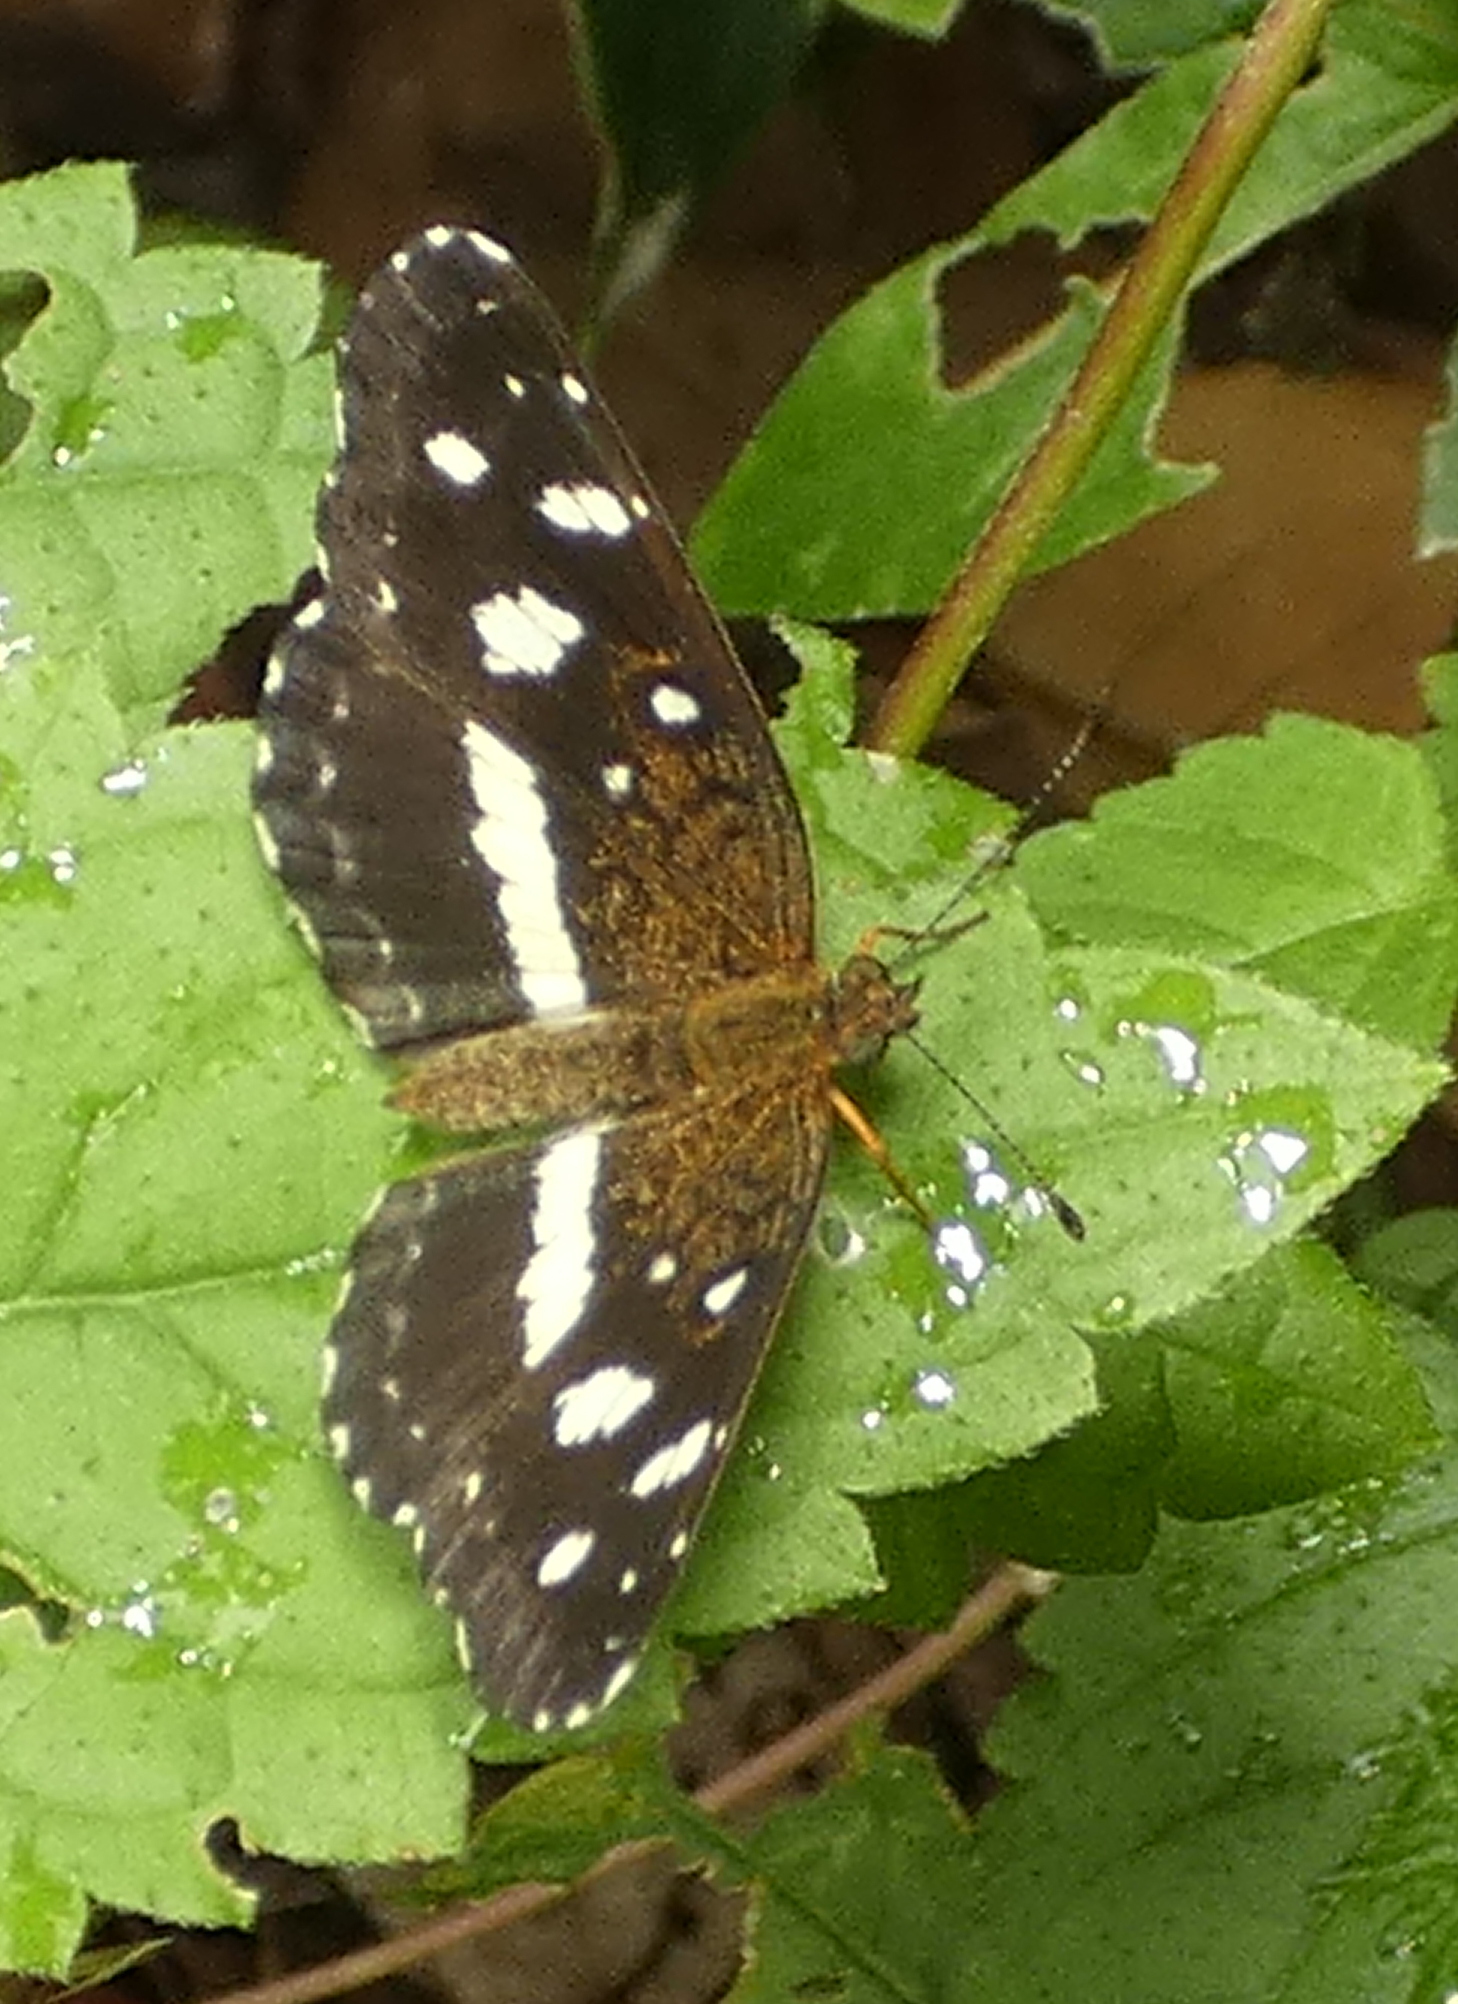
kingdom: Animalia
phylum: Arthropoda
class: Insecta
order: Lepidoptera
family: Nymphalidae
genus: Ortilia
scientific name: Ortilia ithra
